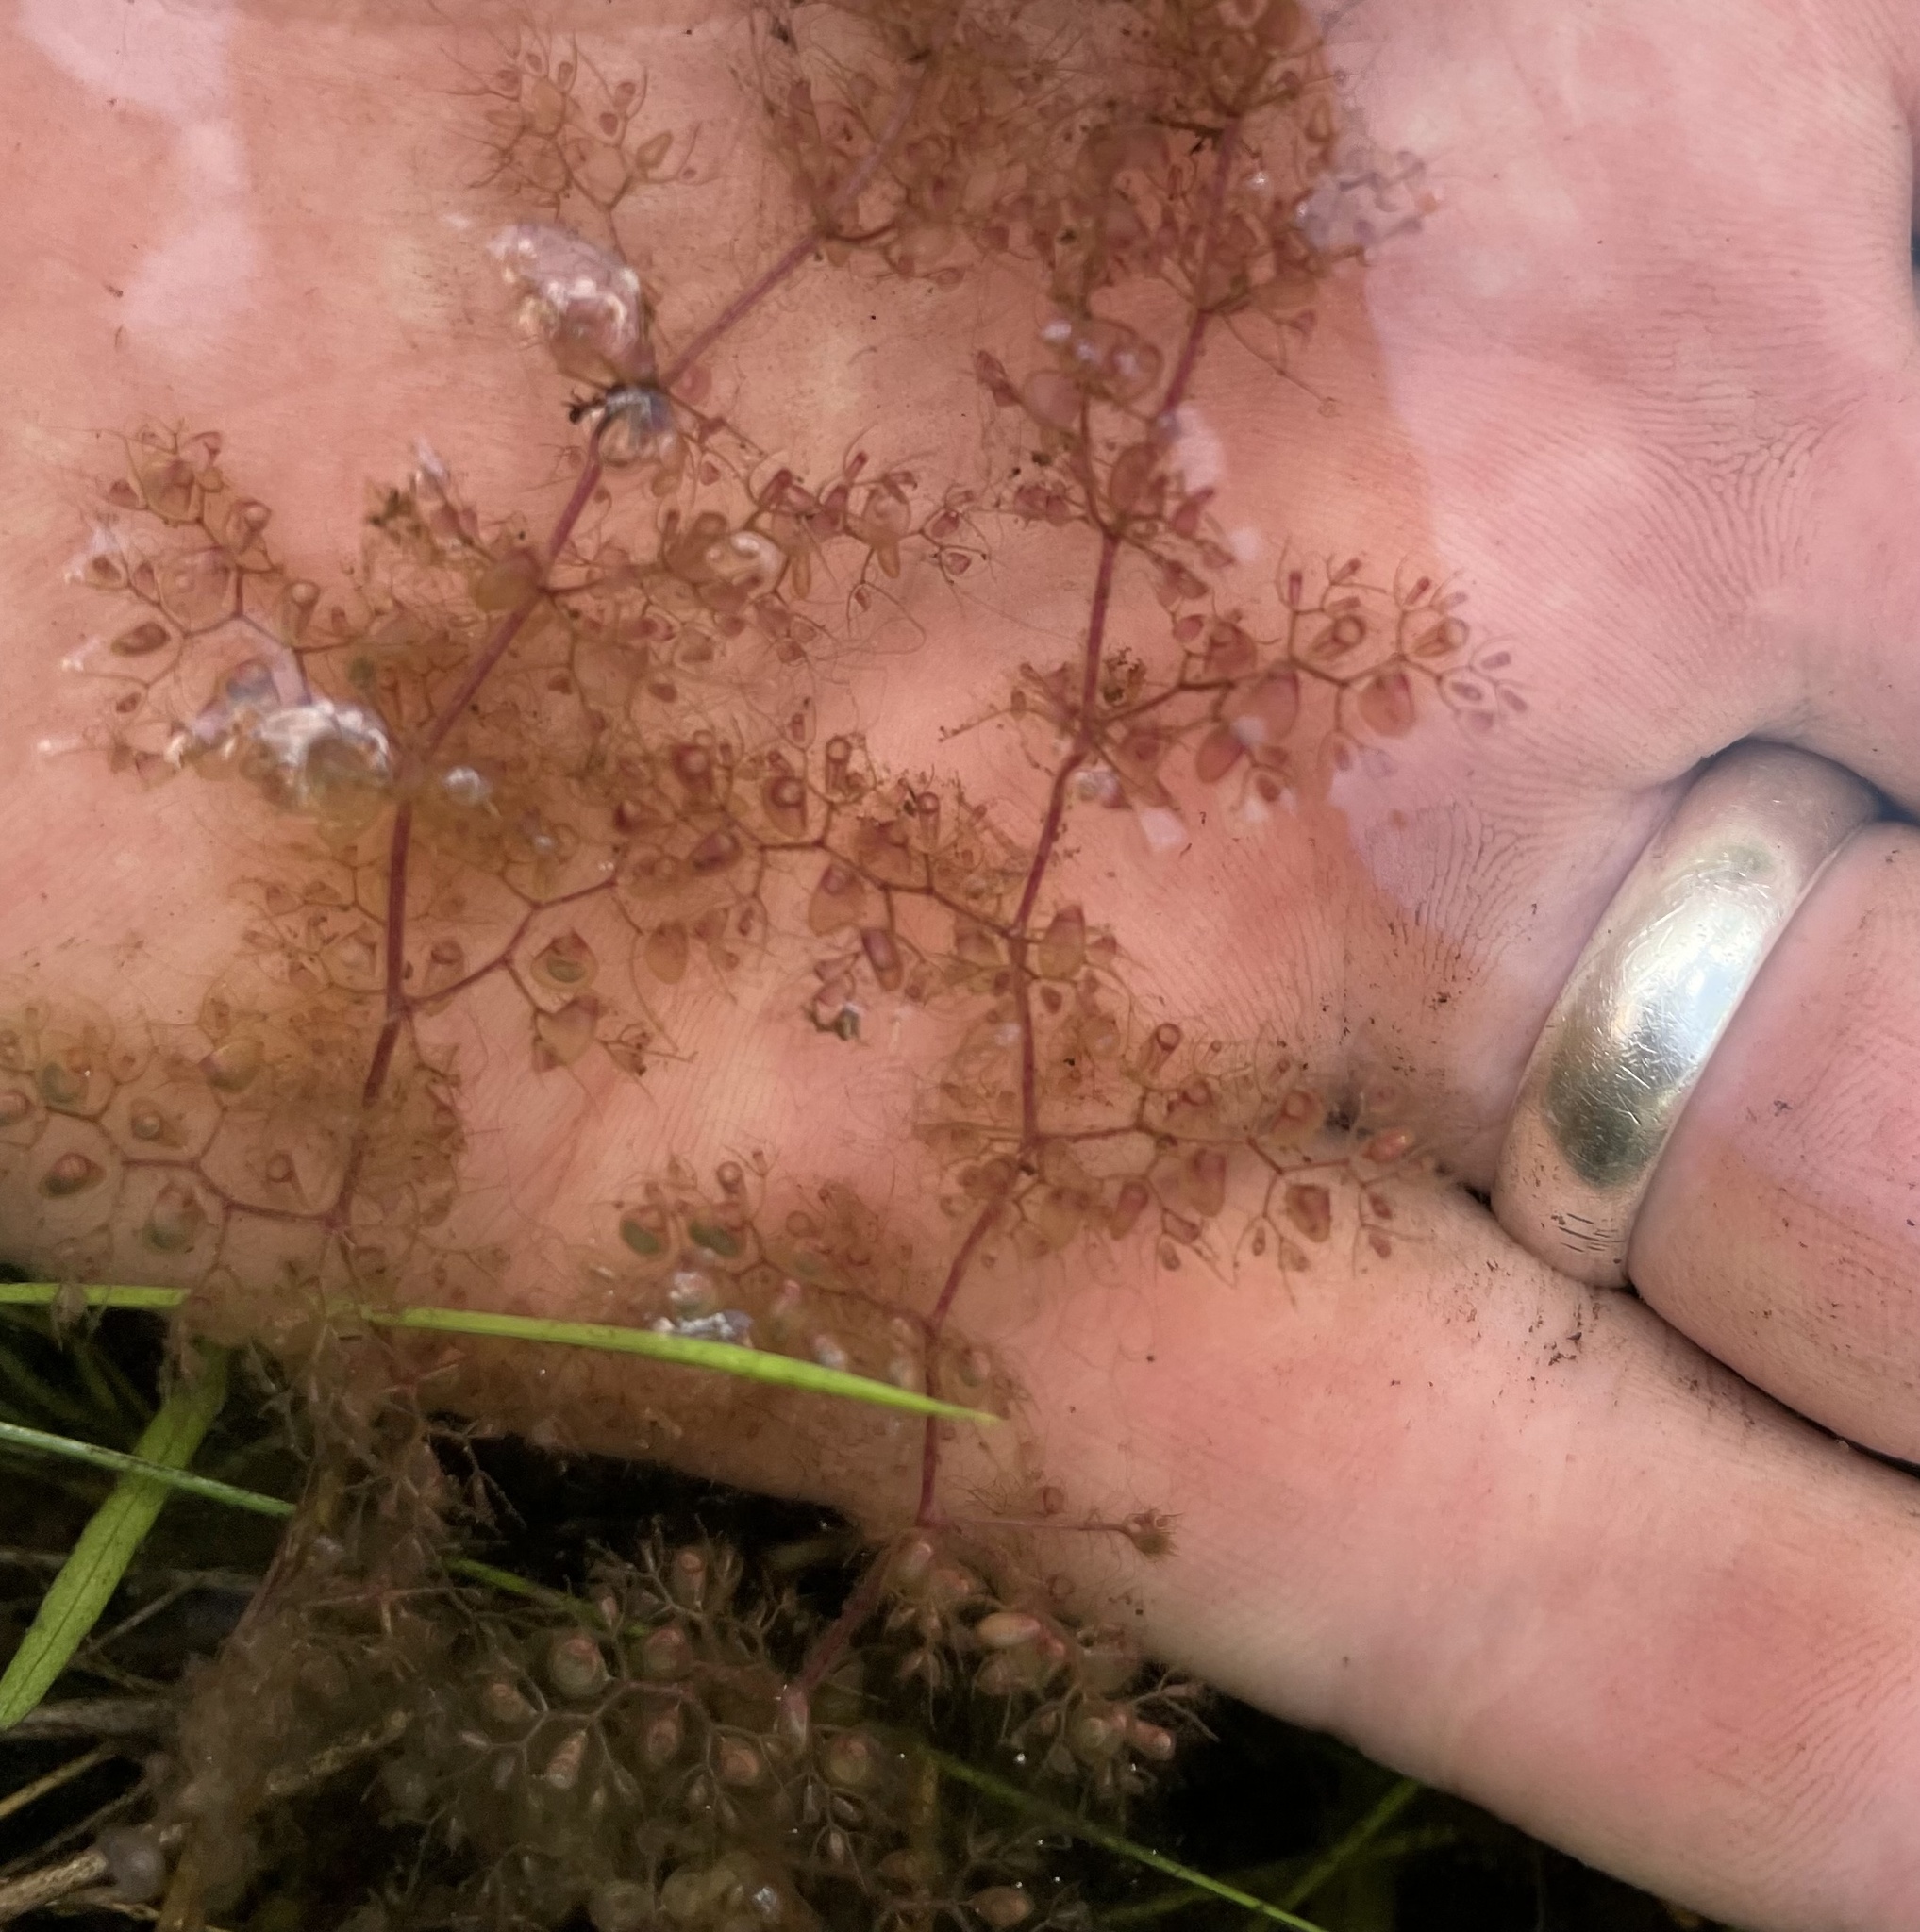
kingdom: Plantae
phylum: Tracheophyta
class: Magnoliopsida
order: Lamiales
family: Lentibulariaceae
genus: Utricularia
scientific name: Utricularia reflexa
